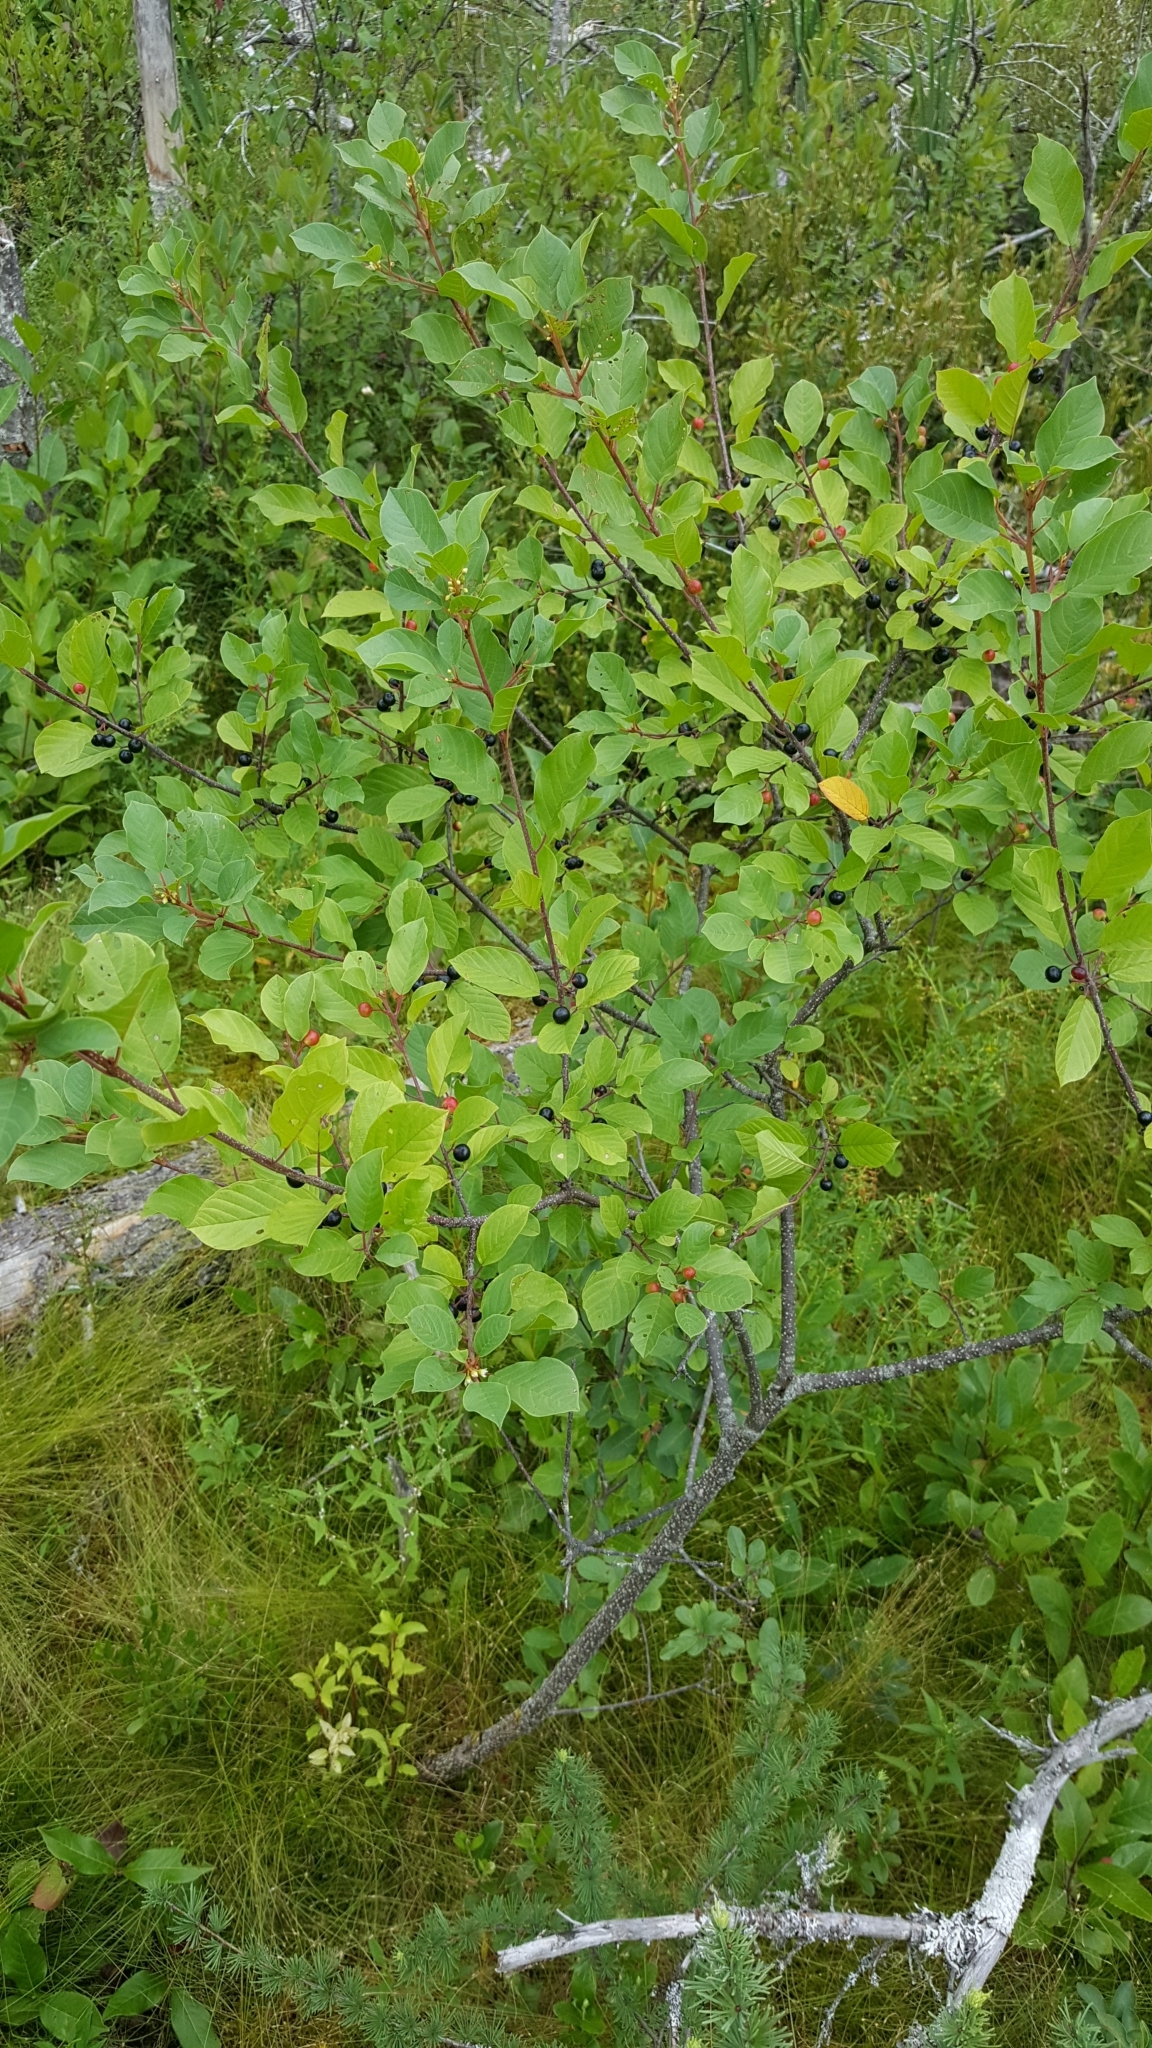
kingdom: Plantae
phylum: Tracheophyta
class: Magnoliopsida
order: Rosales
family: Rhamnaceae
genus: Frangula
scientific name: Frangula alnus
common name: Alder buckthorn
